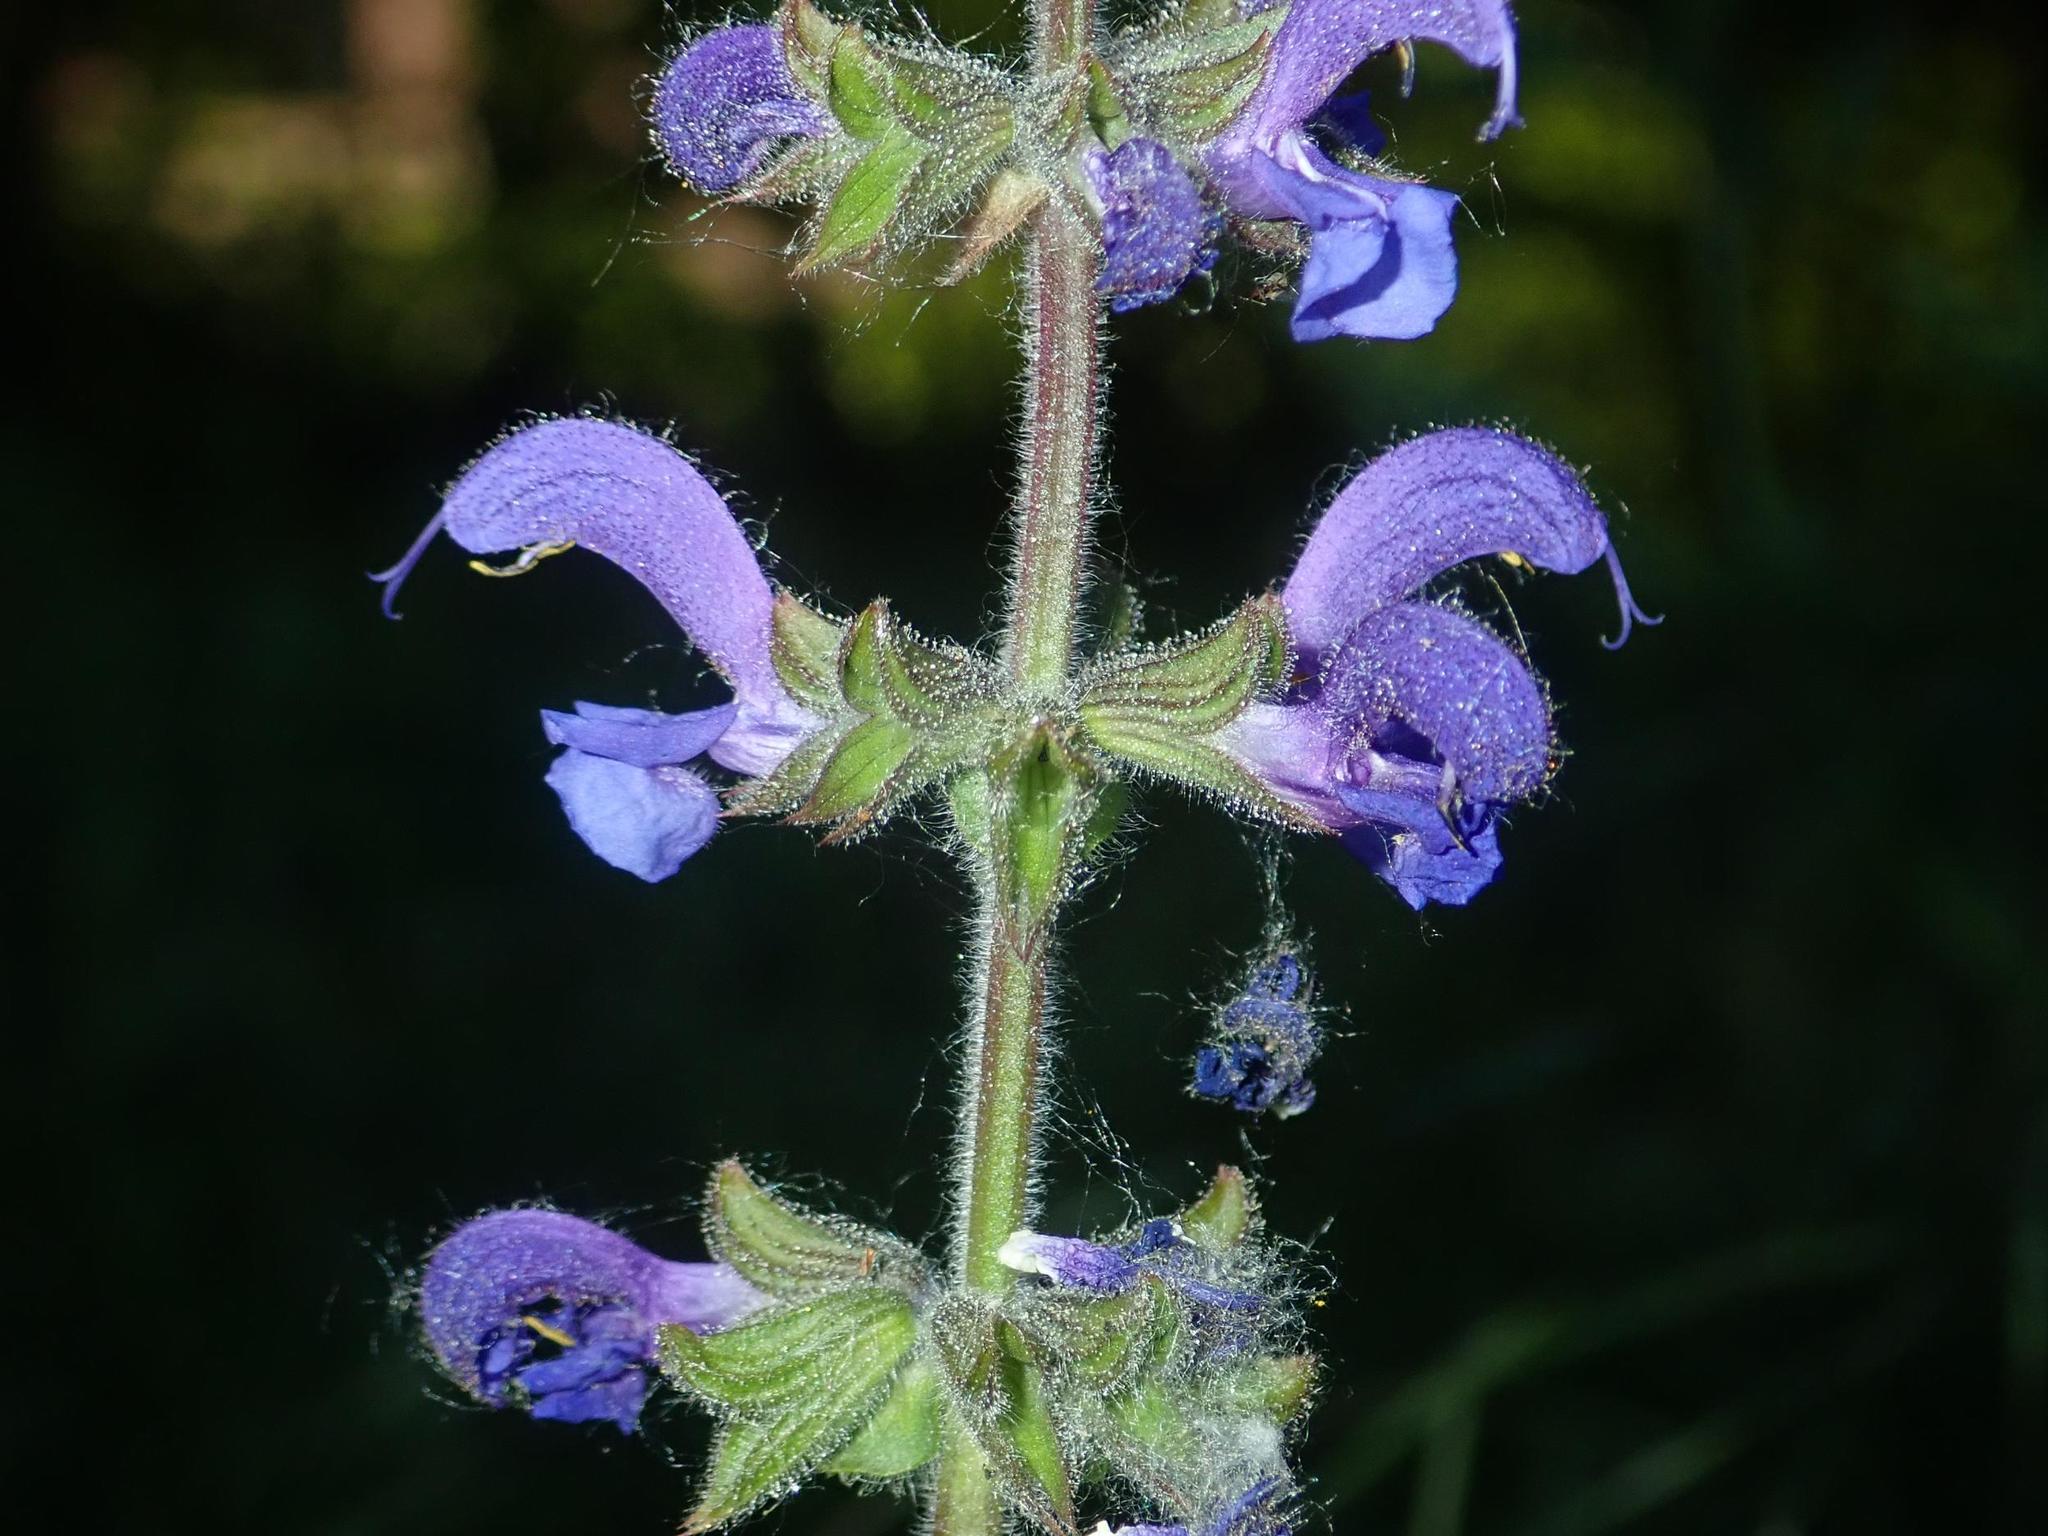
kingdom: Plantae
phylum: Tracheophyta
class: Magnoliopsida
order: Lamiales
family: Lamiaceae
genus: Salvia
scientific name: Salvia pratensis
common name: Meadow sage
